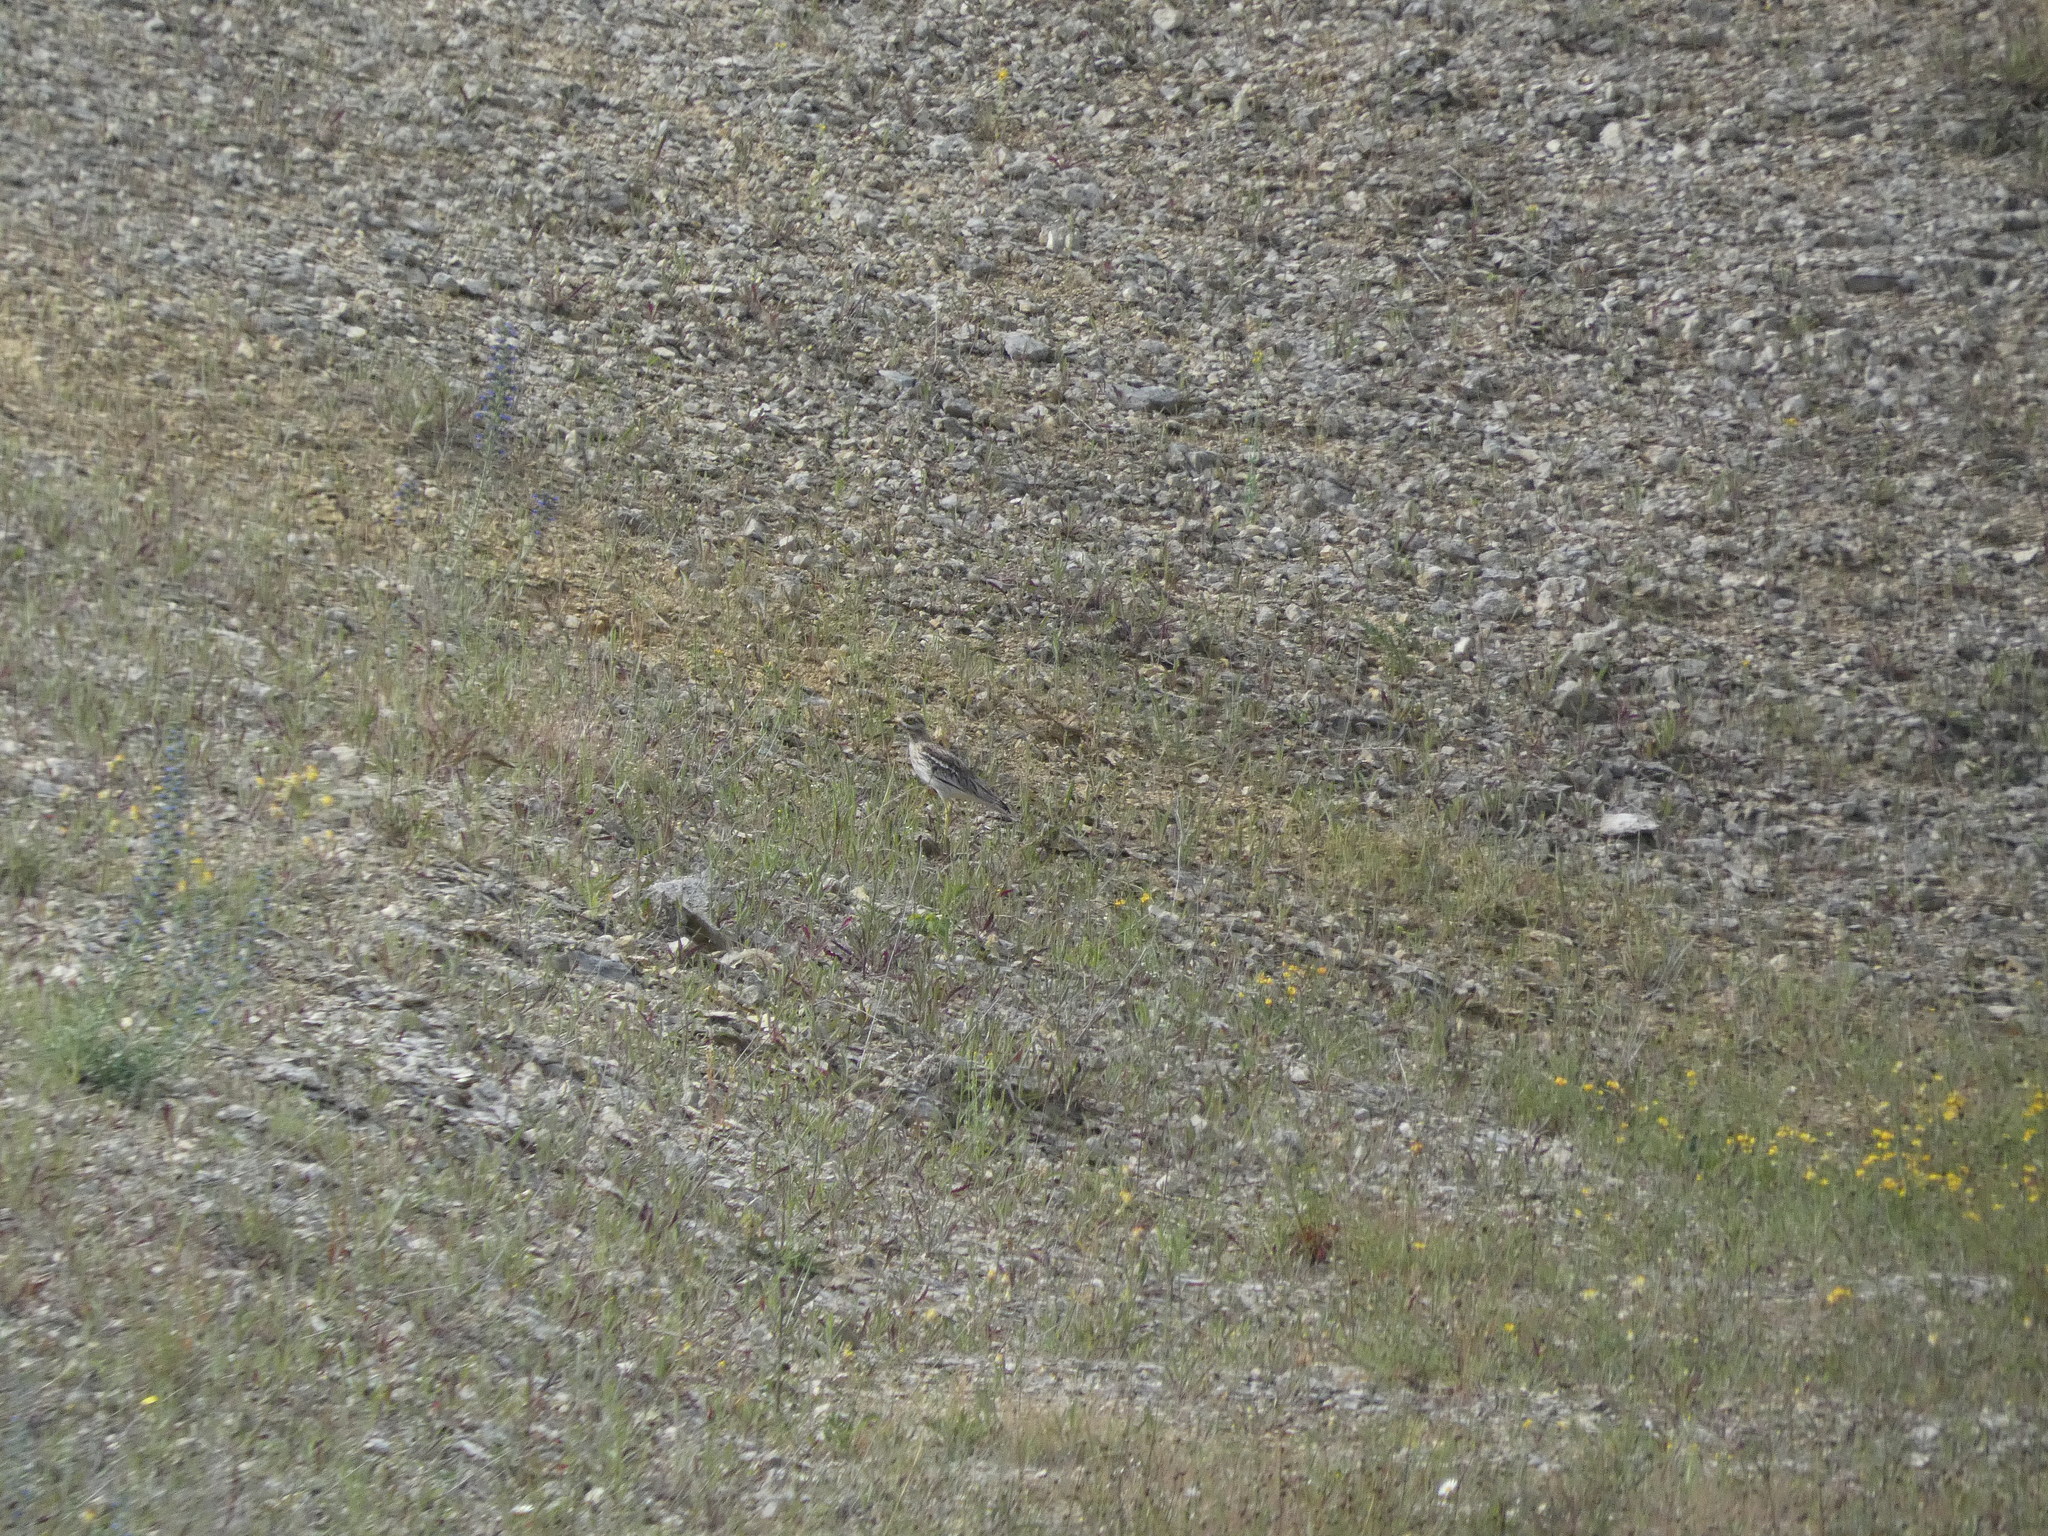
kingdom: Animalia
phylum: Chordata
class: Aves
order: Charadriiformes
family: Burhinidae
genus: Burhinus
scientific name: Burhinus oedicnemus
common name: Eurasian stone-curlew
